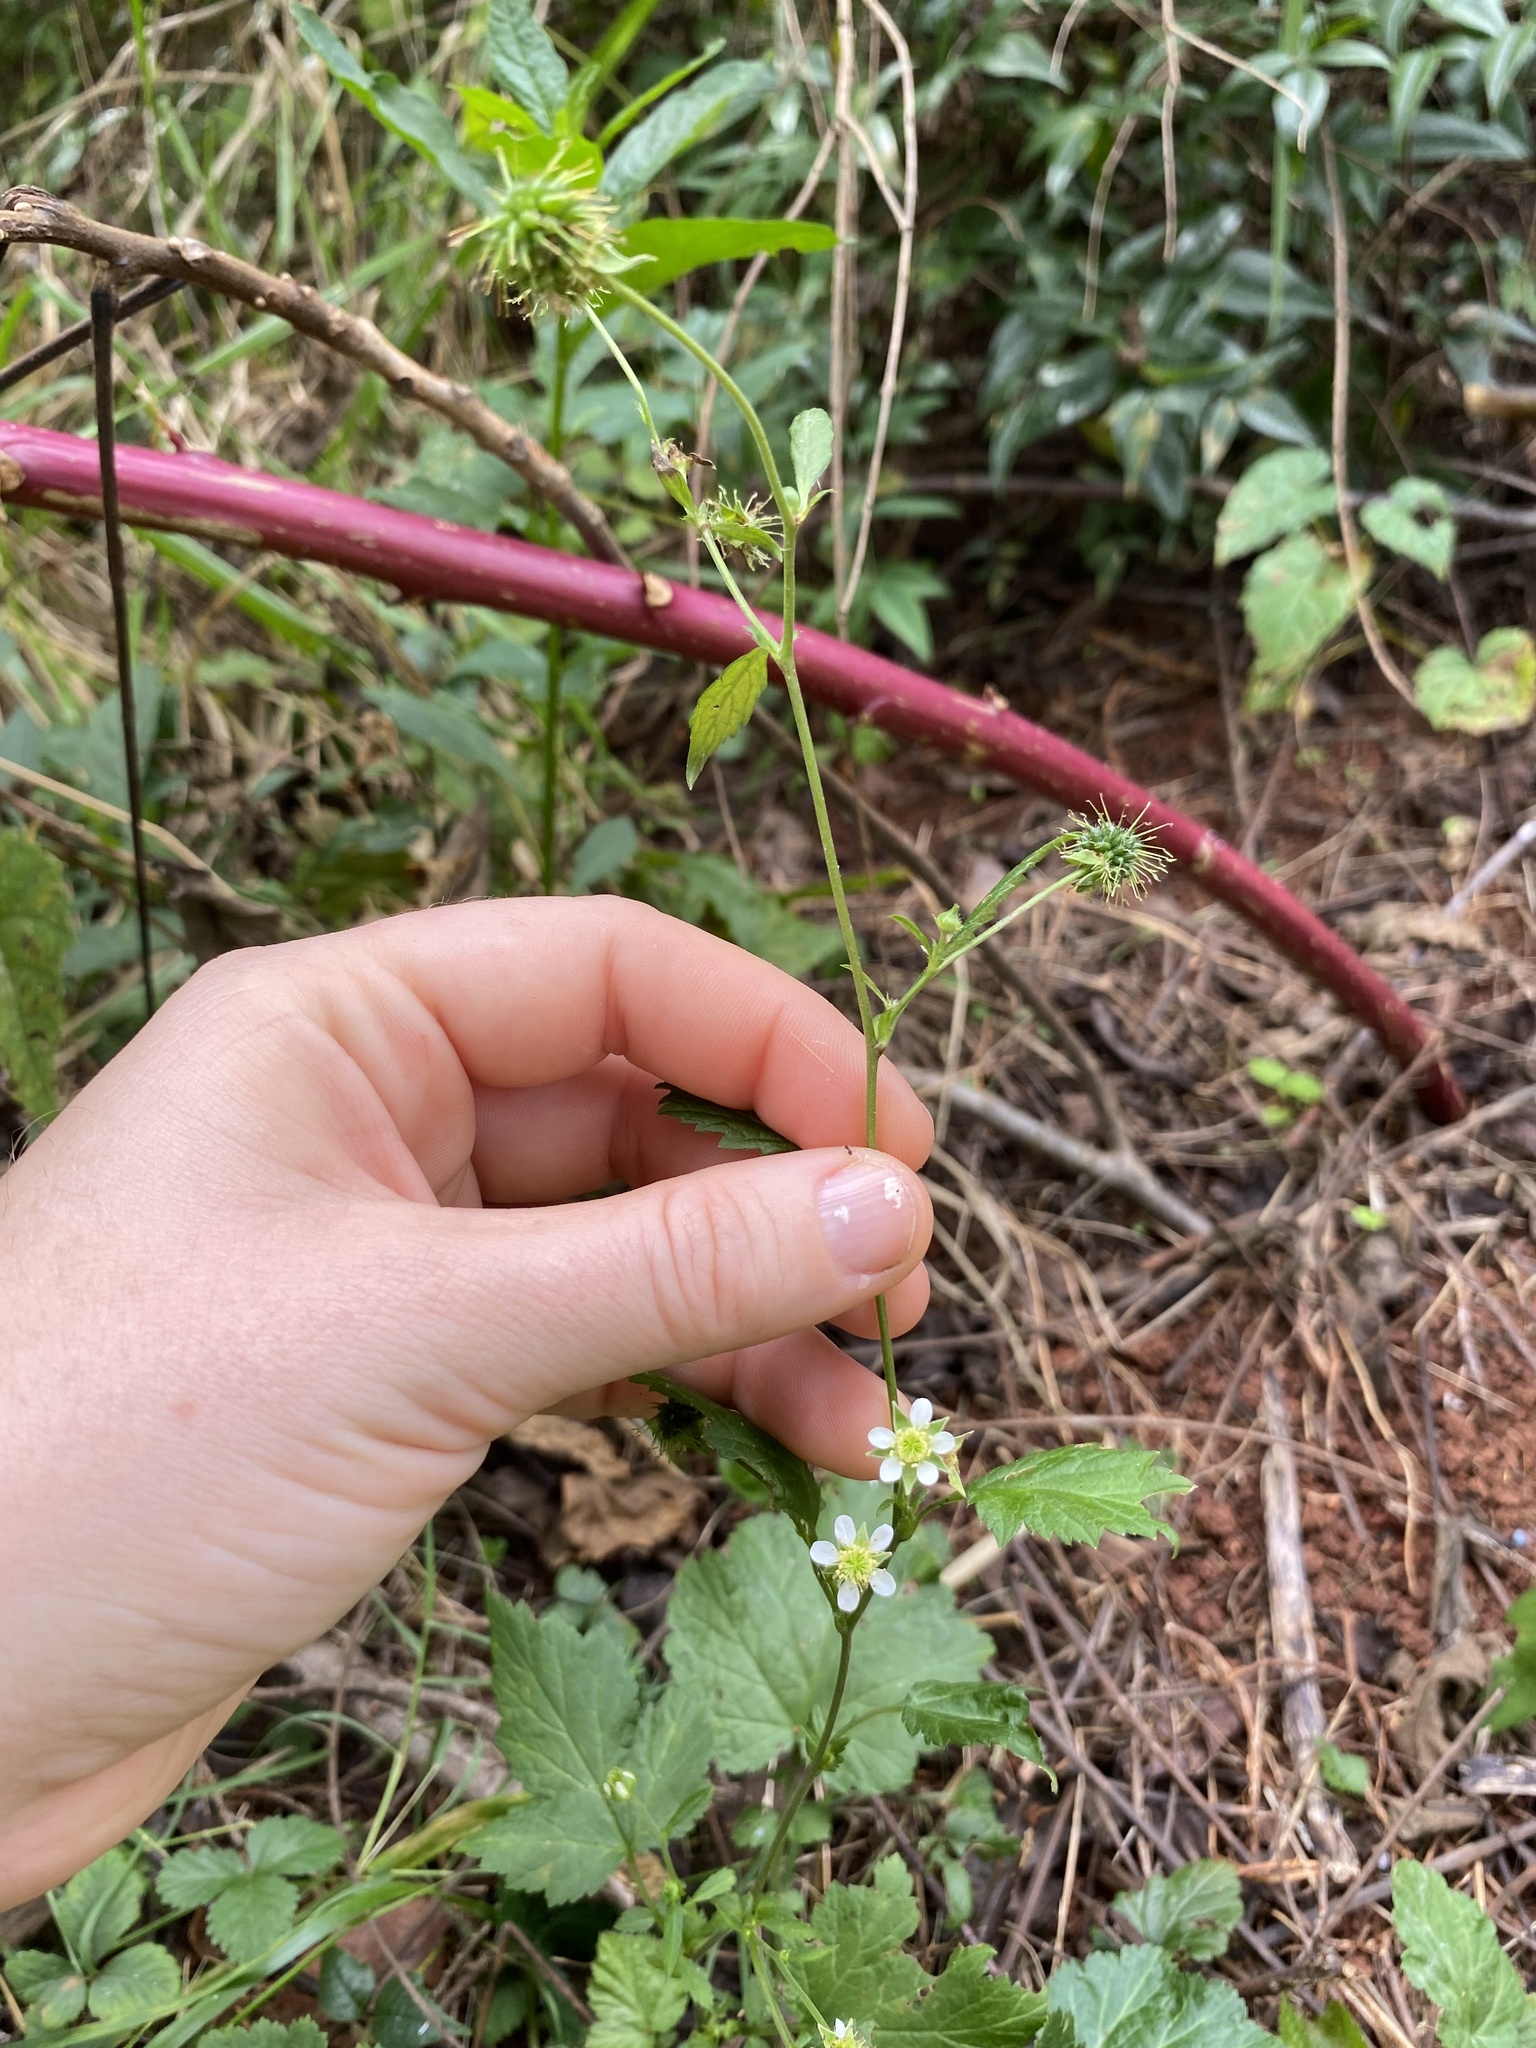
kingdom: Plantae
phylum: Tracheophyta
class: Magnoliopsida
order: Rosales
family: Rosaceae
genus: Geum
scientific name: Geum canadense
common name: White avens
